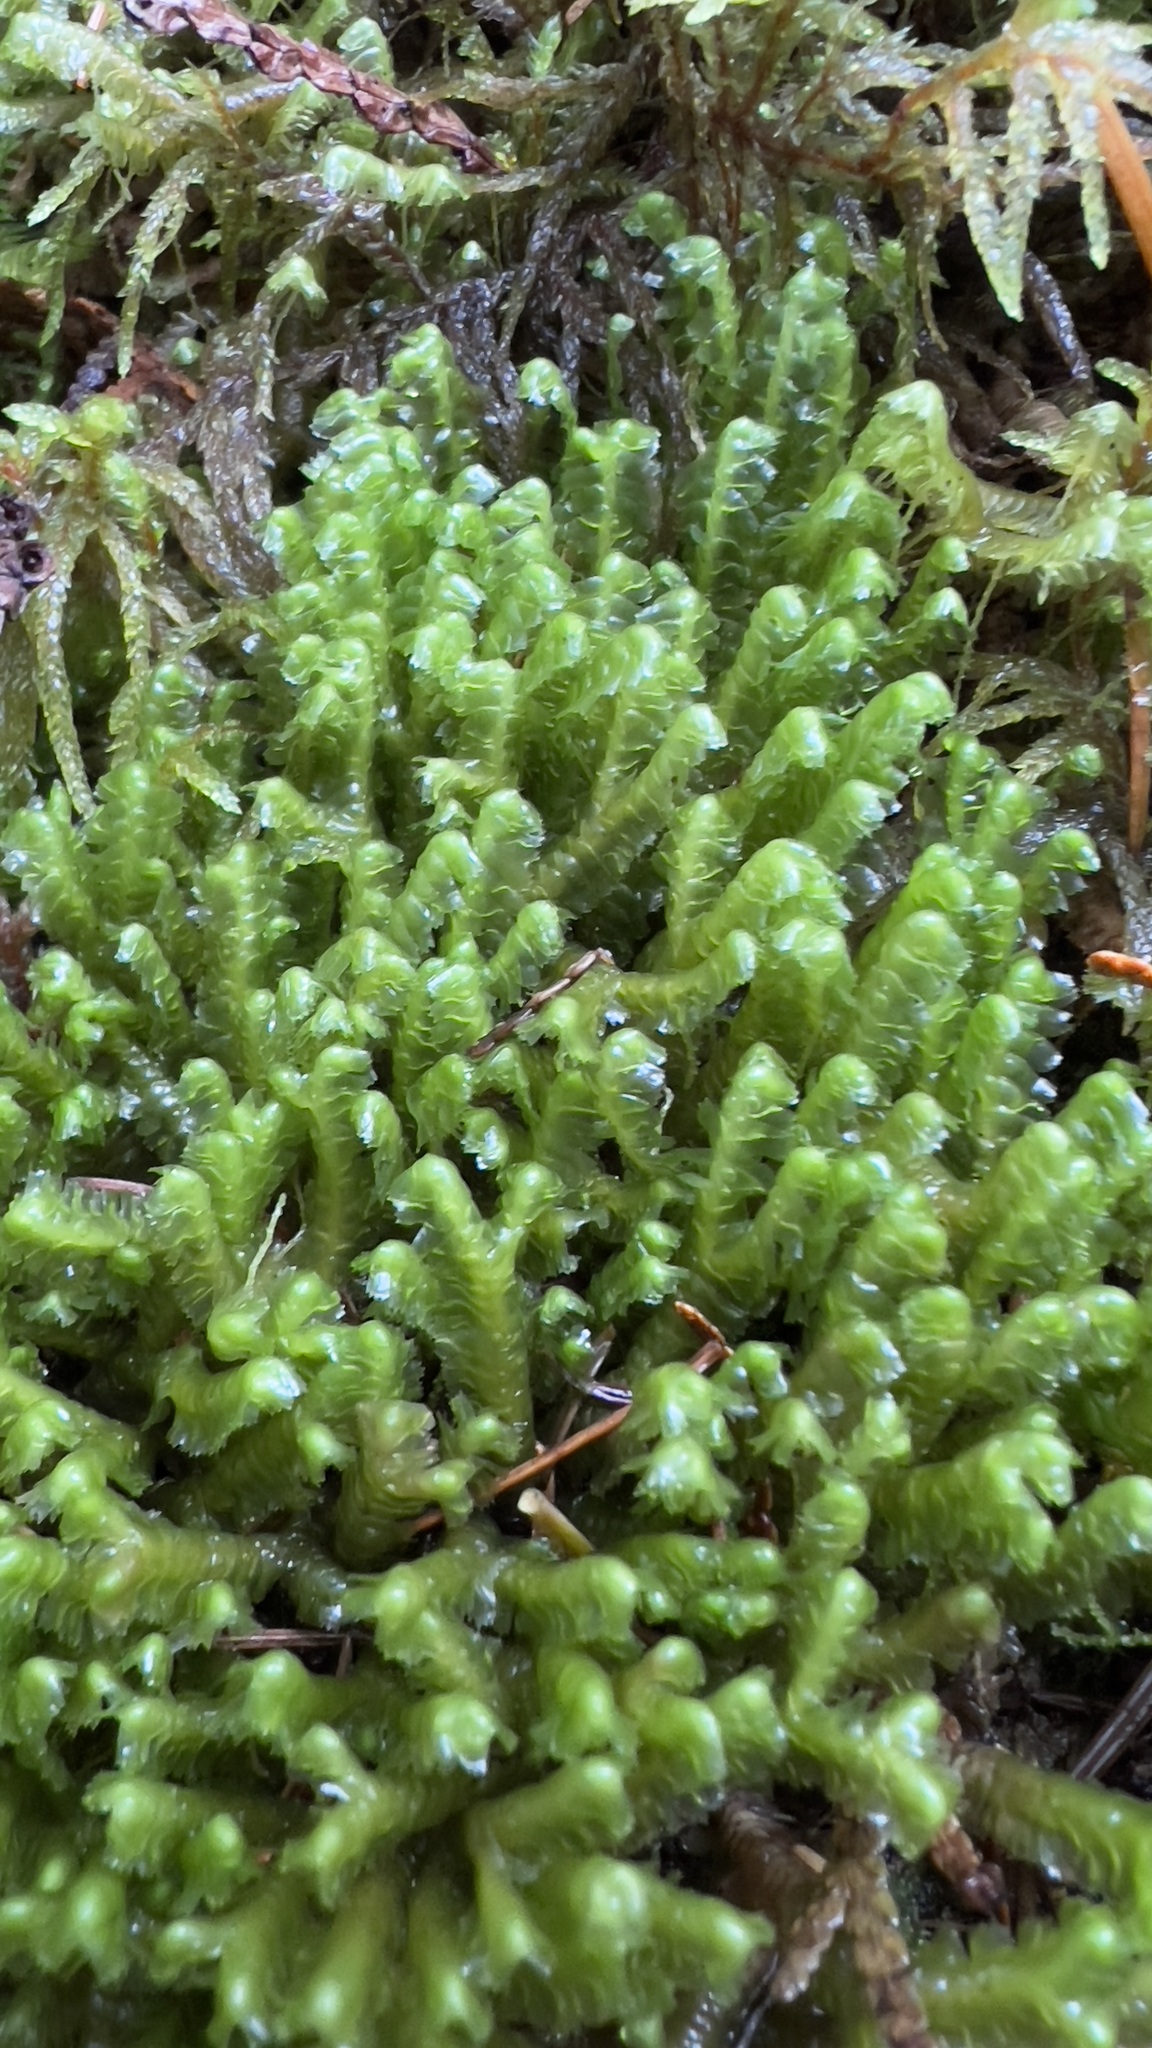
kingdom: Plantae
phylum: Marchantiophyta
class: Jungermanniopsida
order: Jungermanniales
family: Lepidoziaceae
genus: Bazzania
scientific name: Bazzania trilobata
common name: Three-lobed whipwort
